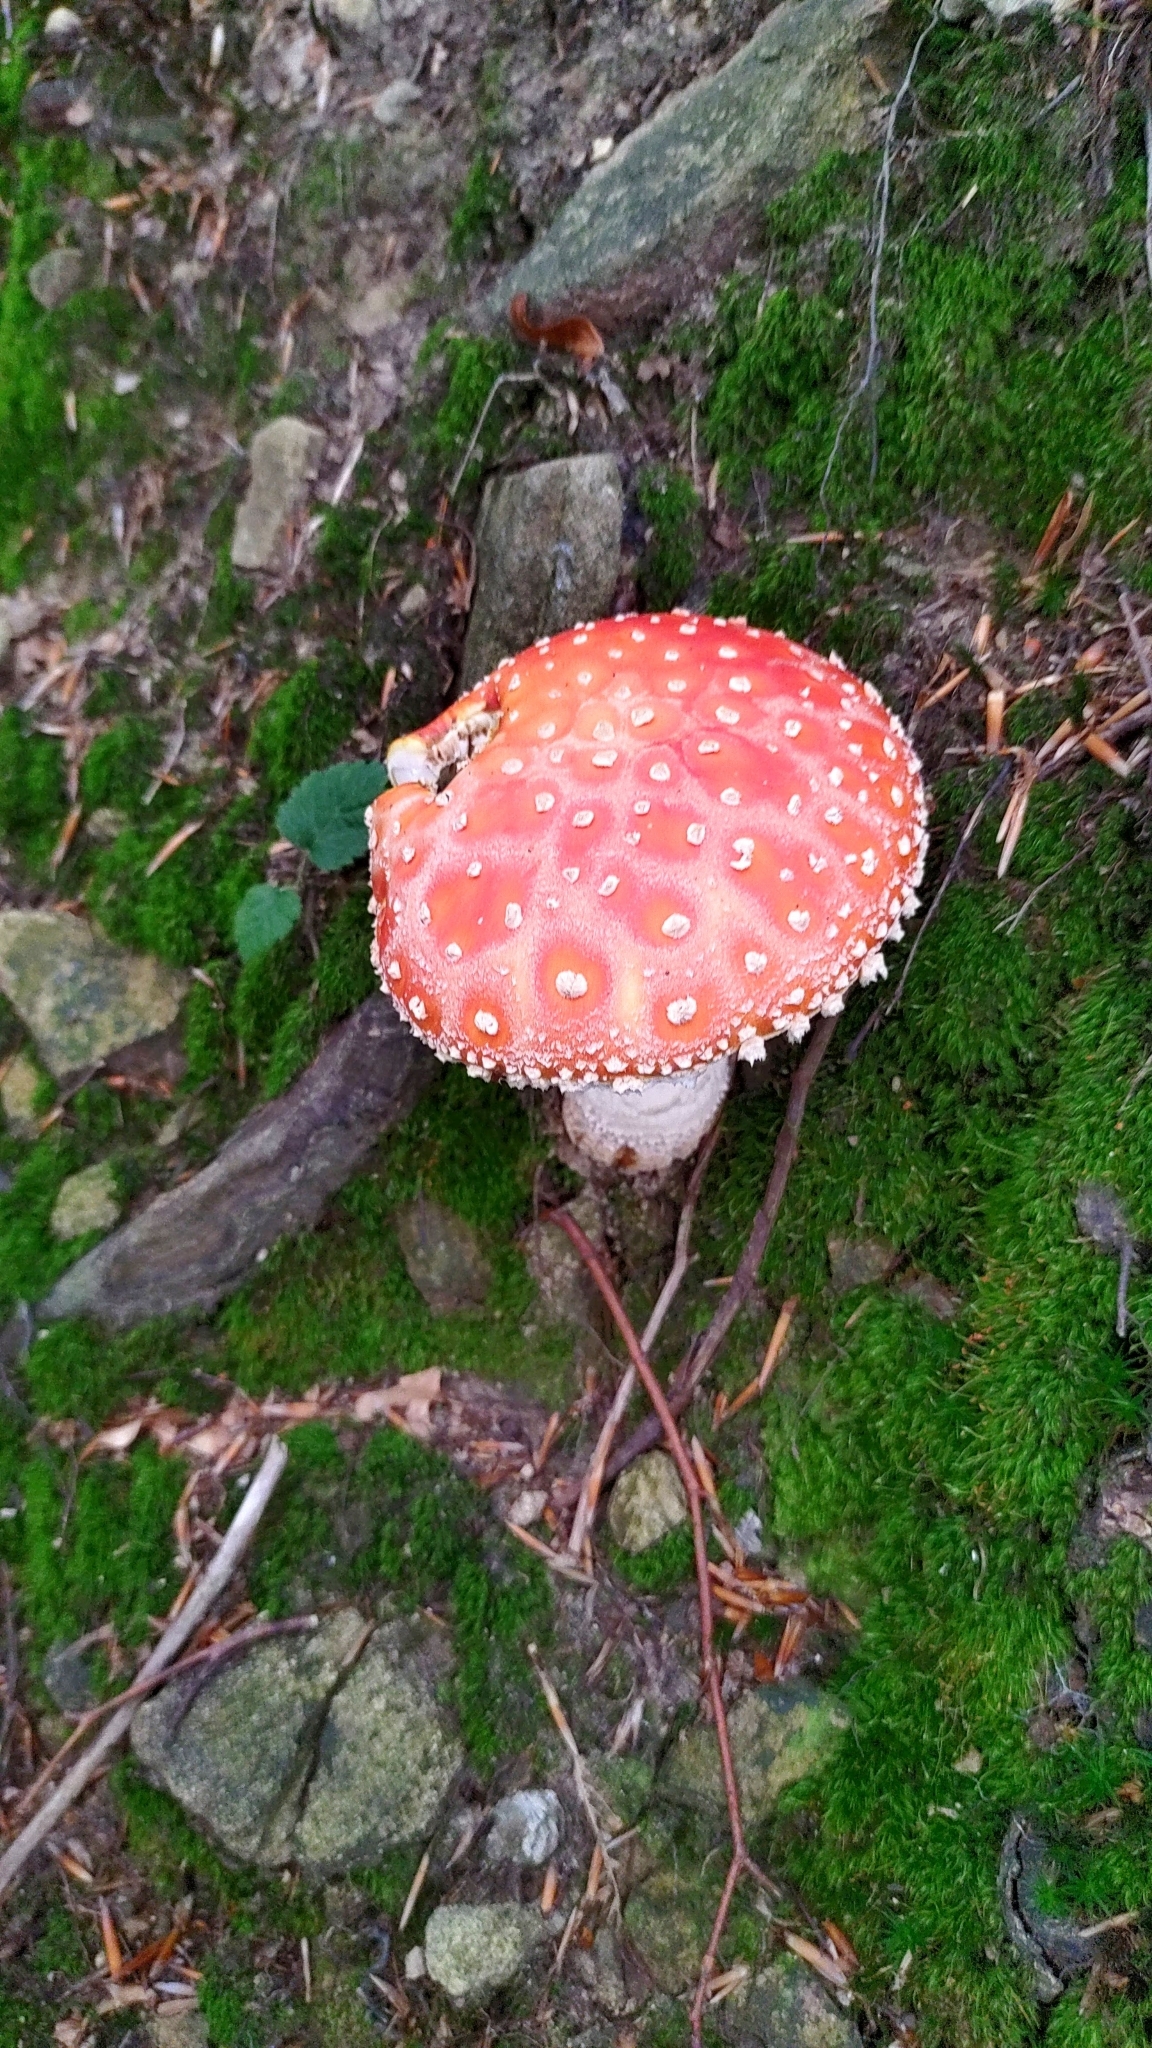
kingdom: Fungi
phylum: Basidiomycota
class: Agaricomycetes
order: Agaricales
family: Amanitaceae
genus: Amanita
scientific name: Amanita muscaria
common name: Fly agaric
